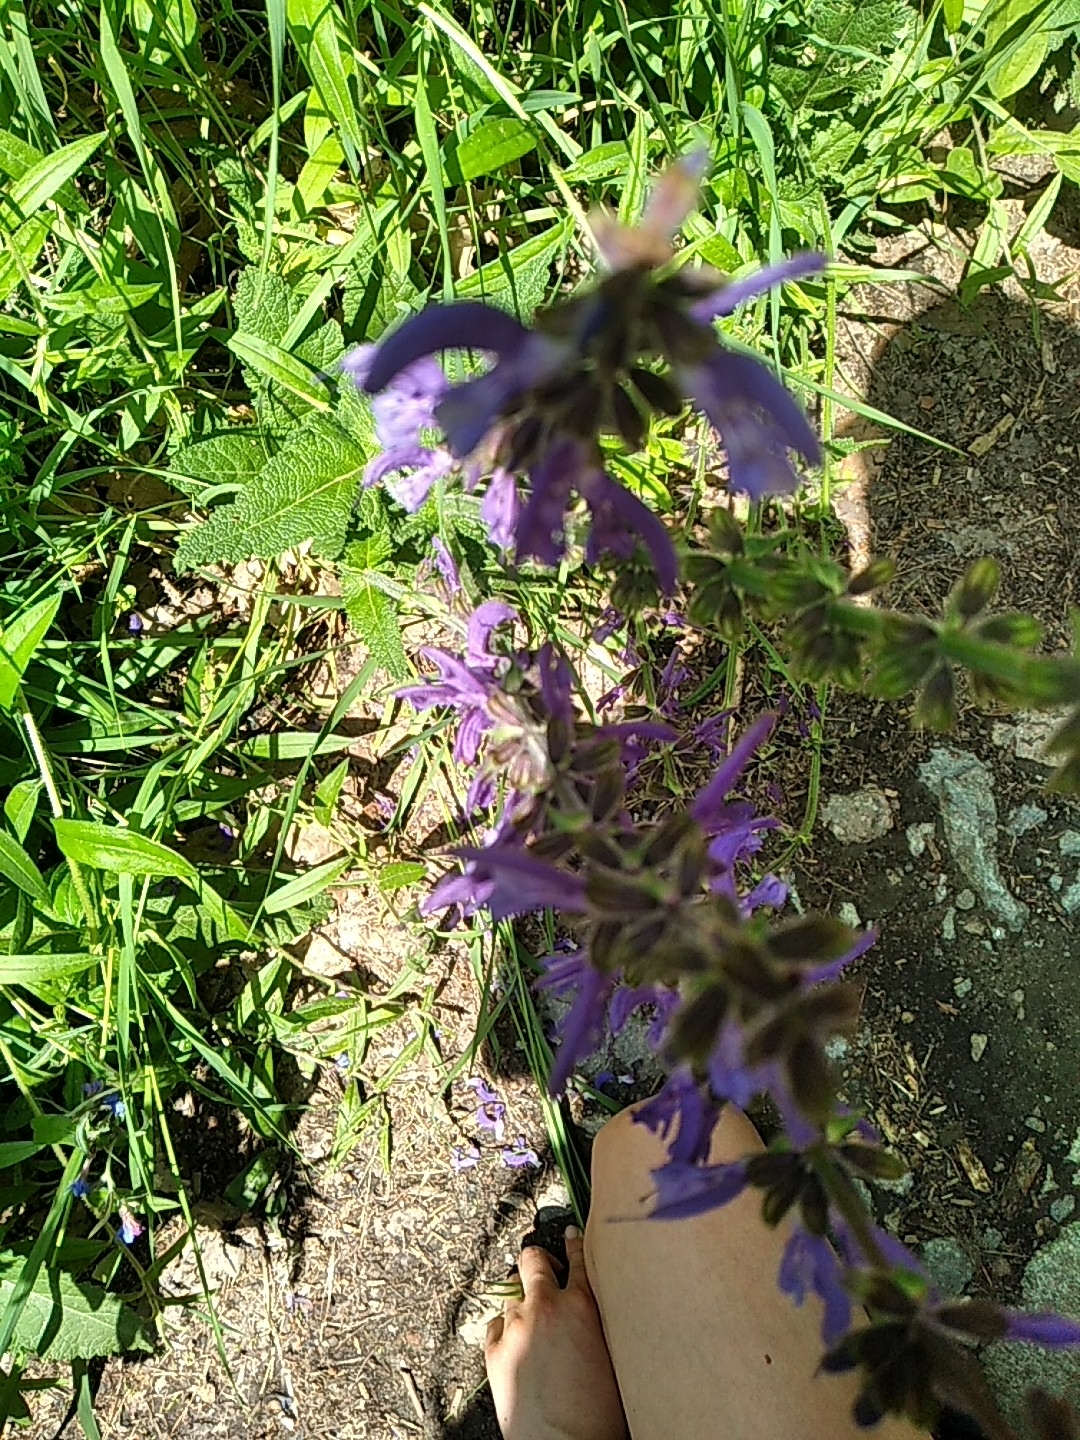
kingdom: Plantae
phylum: Tracheophyta
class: Magnoliopsida
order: Lamiales
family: Lamiaceae
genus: Salvia
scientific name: Salvia pratensis
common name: Meadow sage
